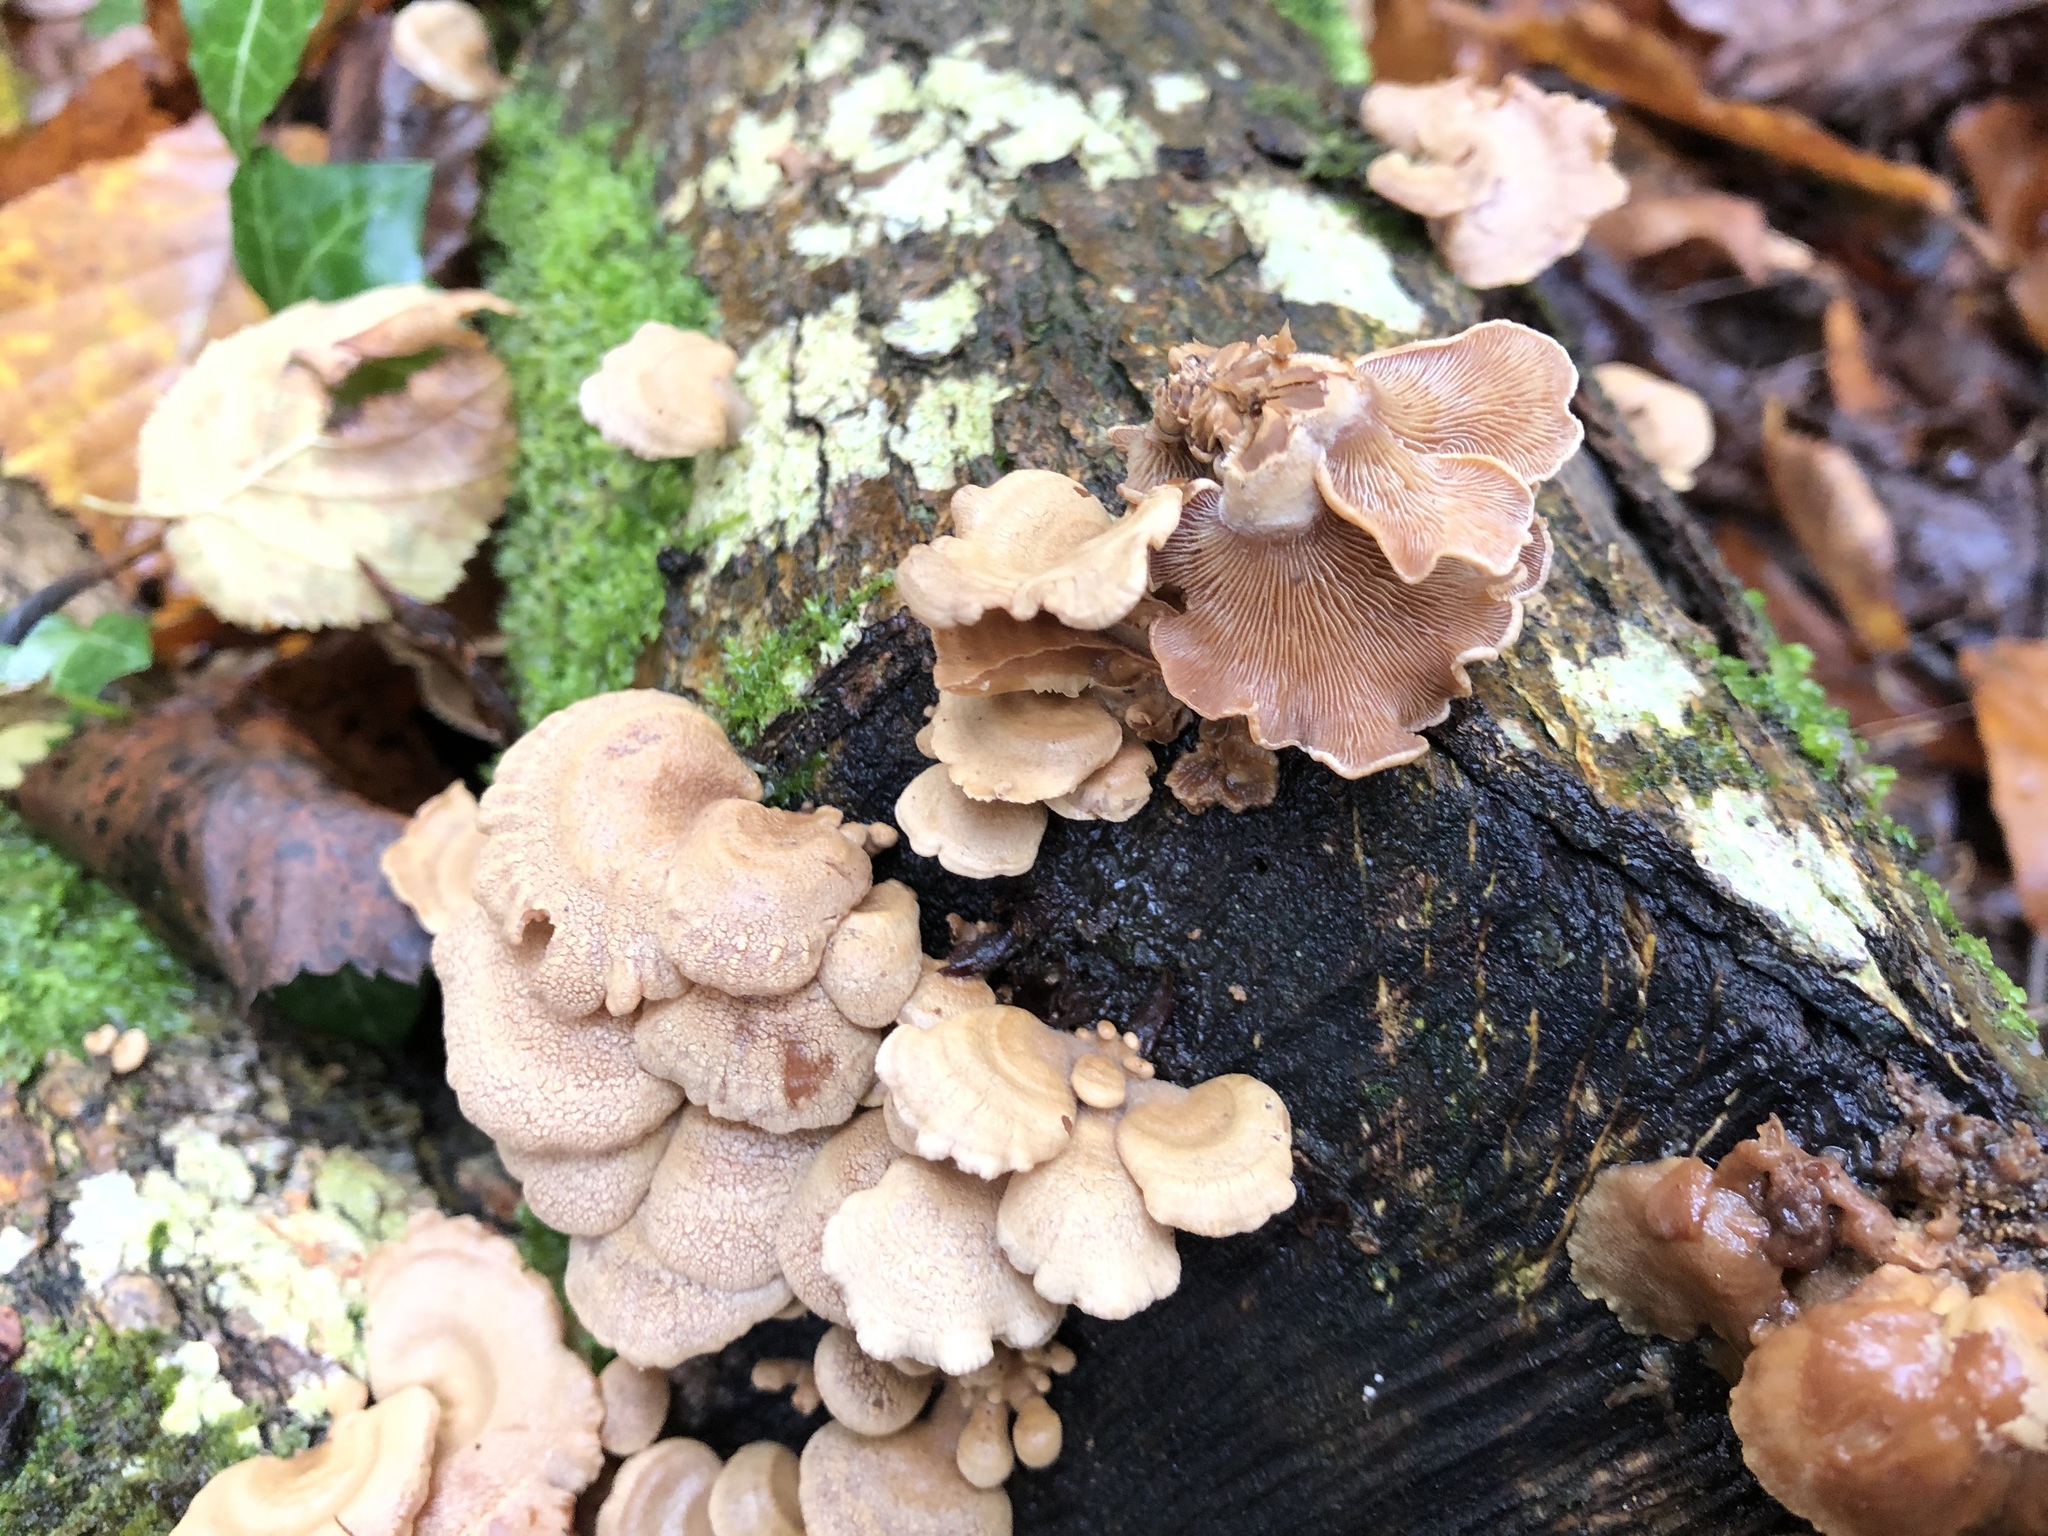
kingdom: Fungi
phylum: Basidiomycota
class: Agaricomycetes
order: Agaricales
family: Mycenaceae
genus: Panellus
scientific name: Panellus stipticus
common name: Bitter oysterling
